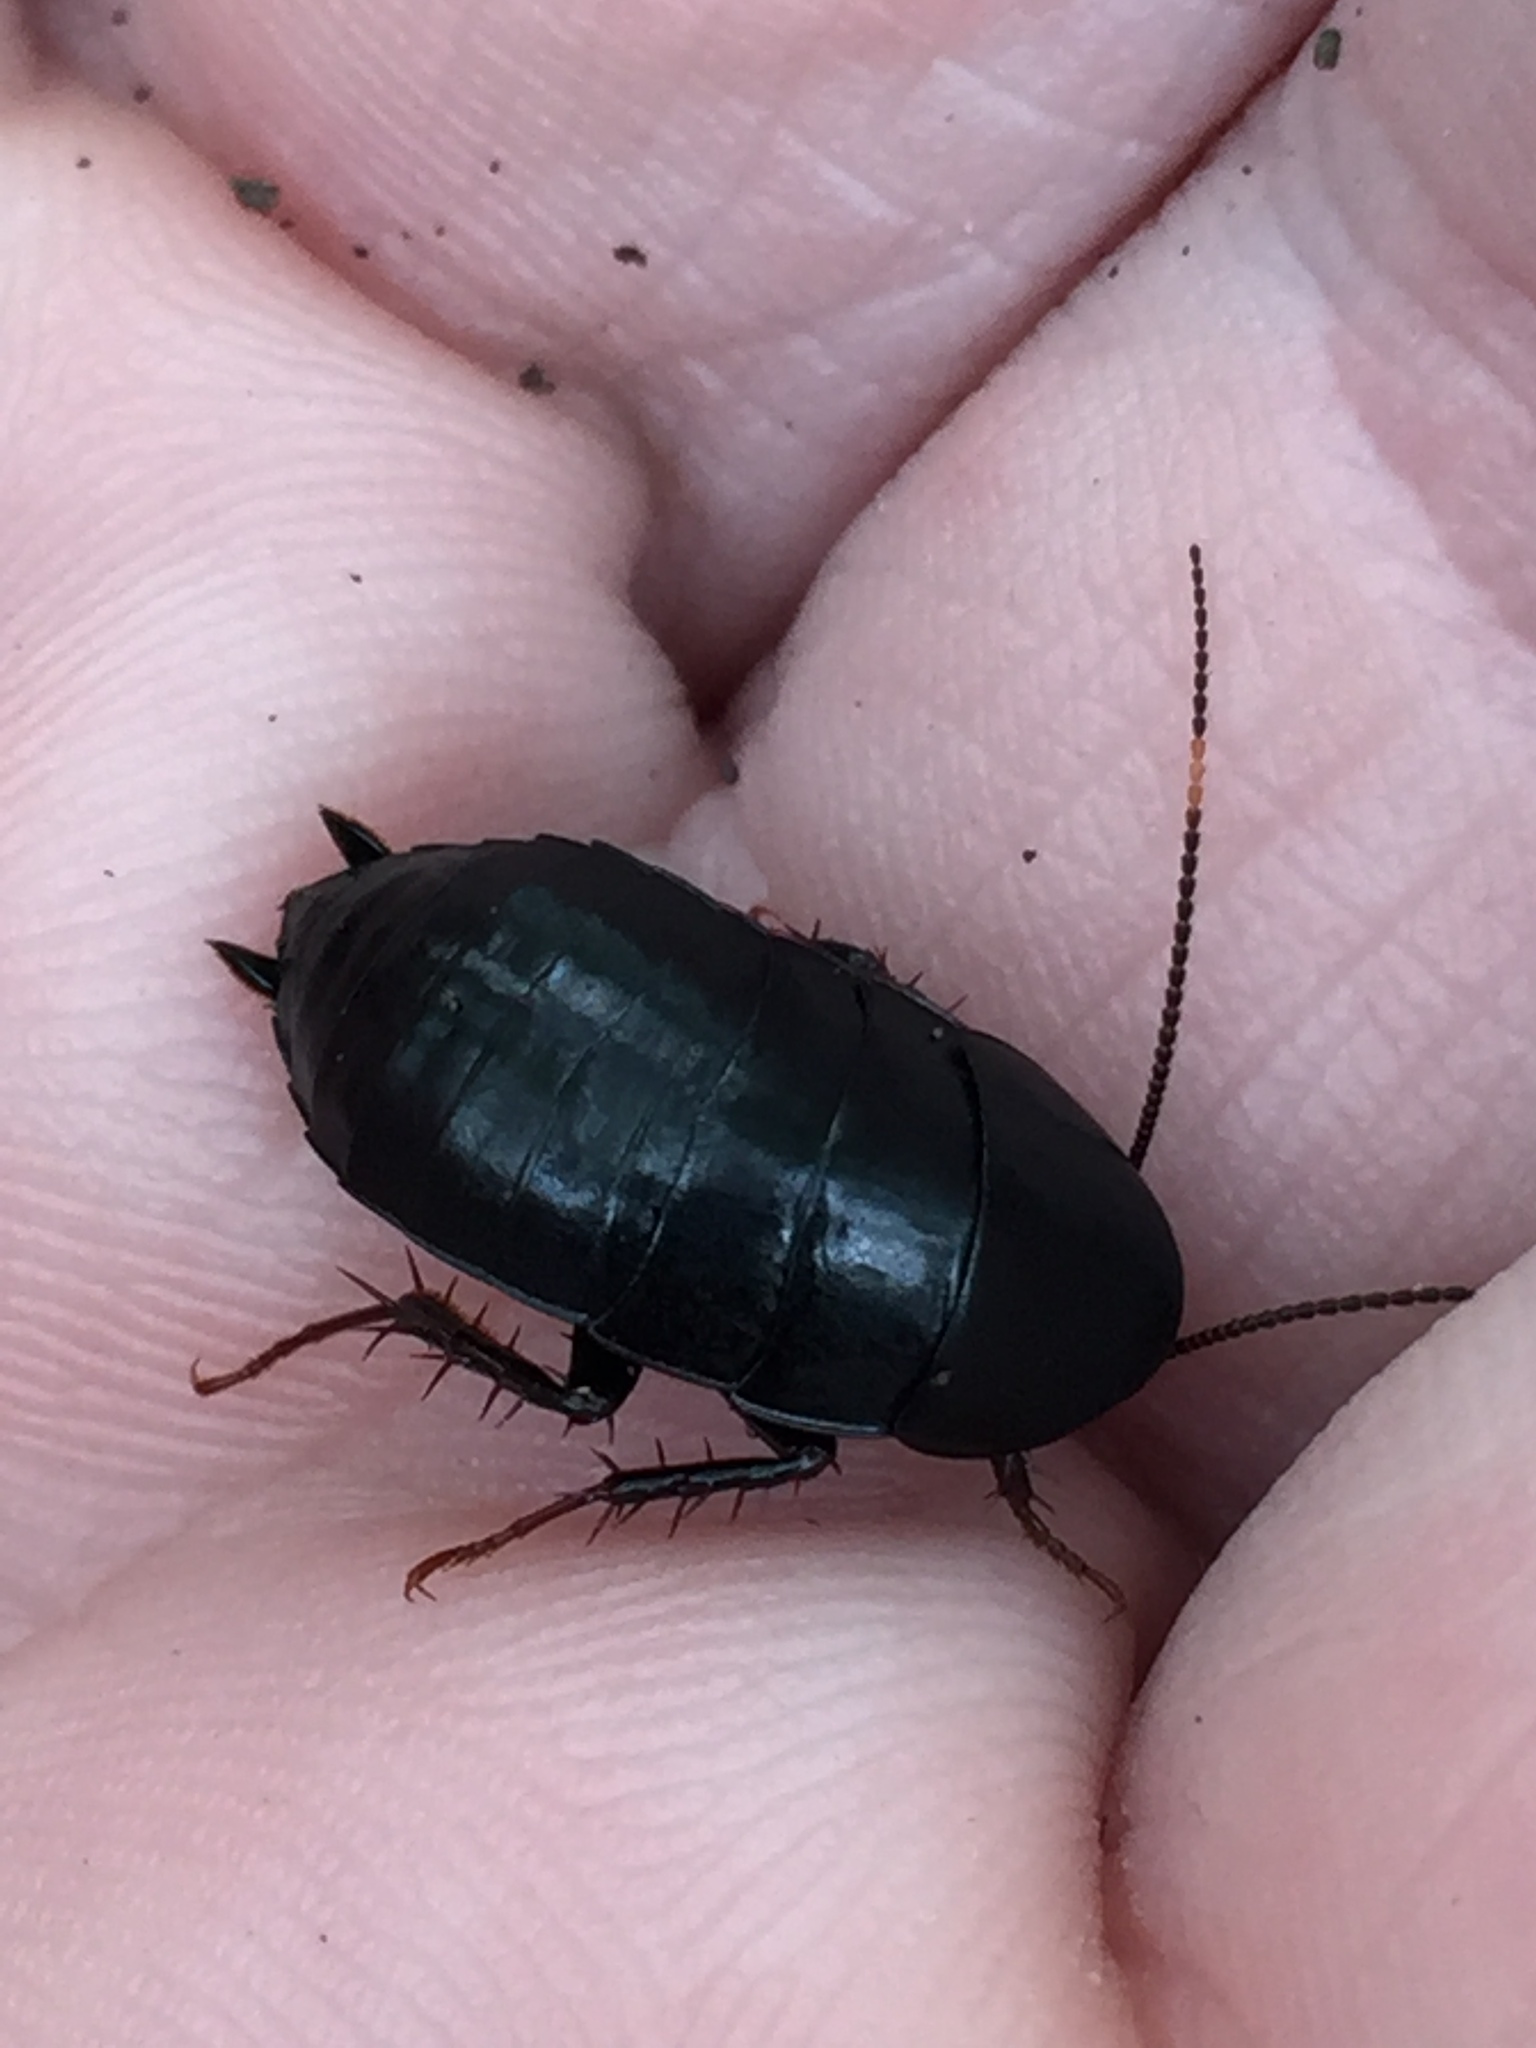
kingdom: Animalia
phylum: Arthropoda
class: Insecta
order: Blattodea
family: Tryonicidae
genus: Tryonicus
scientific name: Tryonicus parvus
